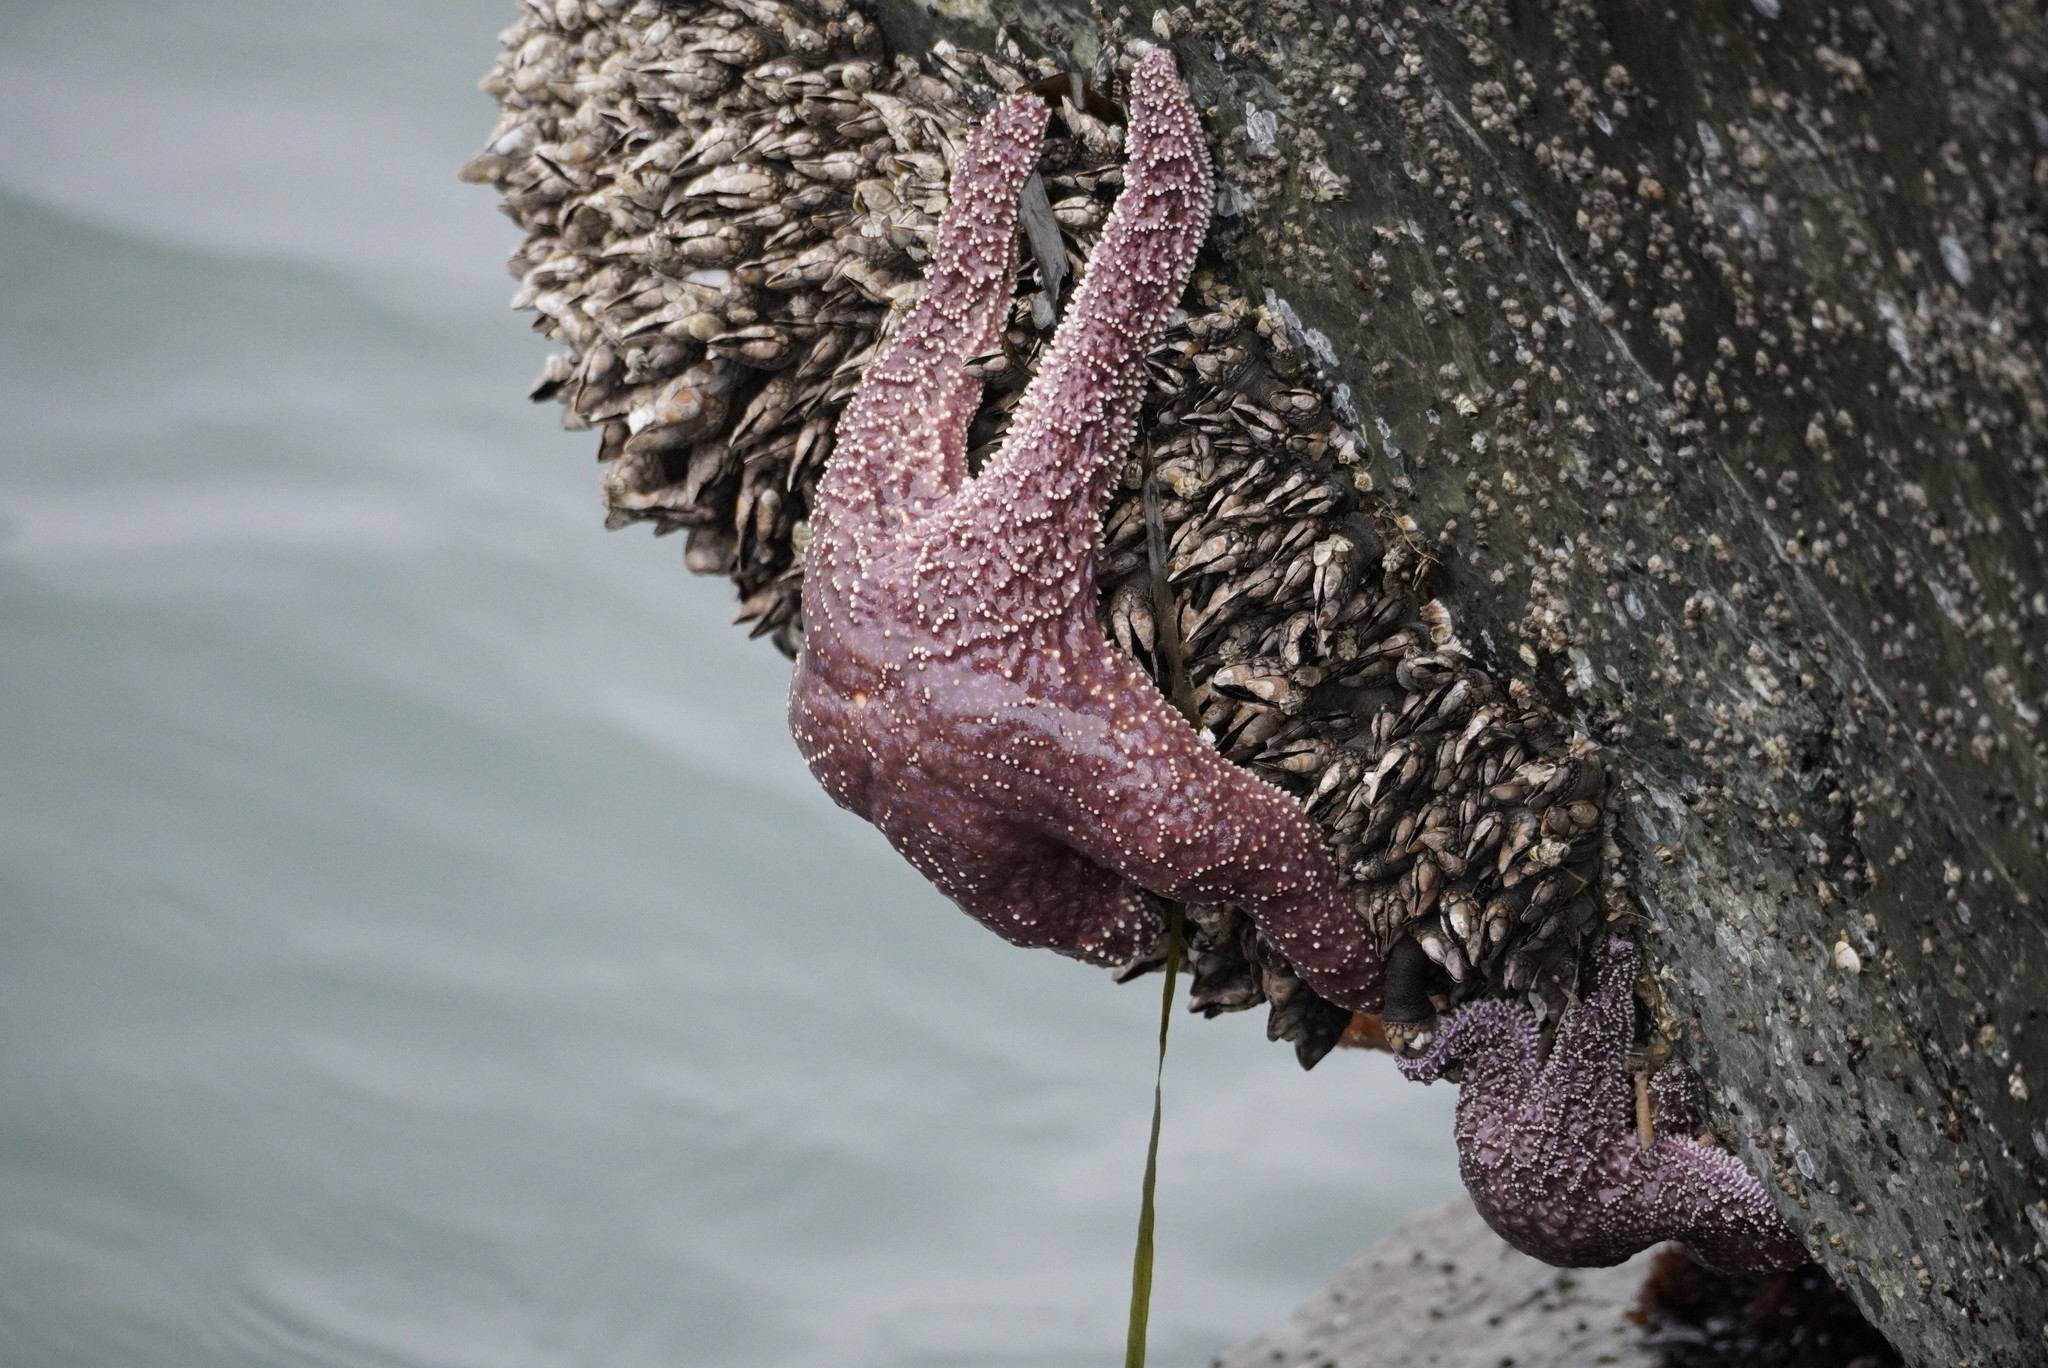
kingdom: Animalia
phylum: Echinodermata
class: Asteroidea
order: Forcipulatida
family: Asteriidae
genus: Pisaster
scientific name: Pisaster ochraceus
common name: Ochre stars
